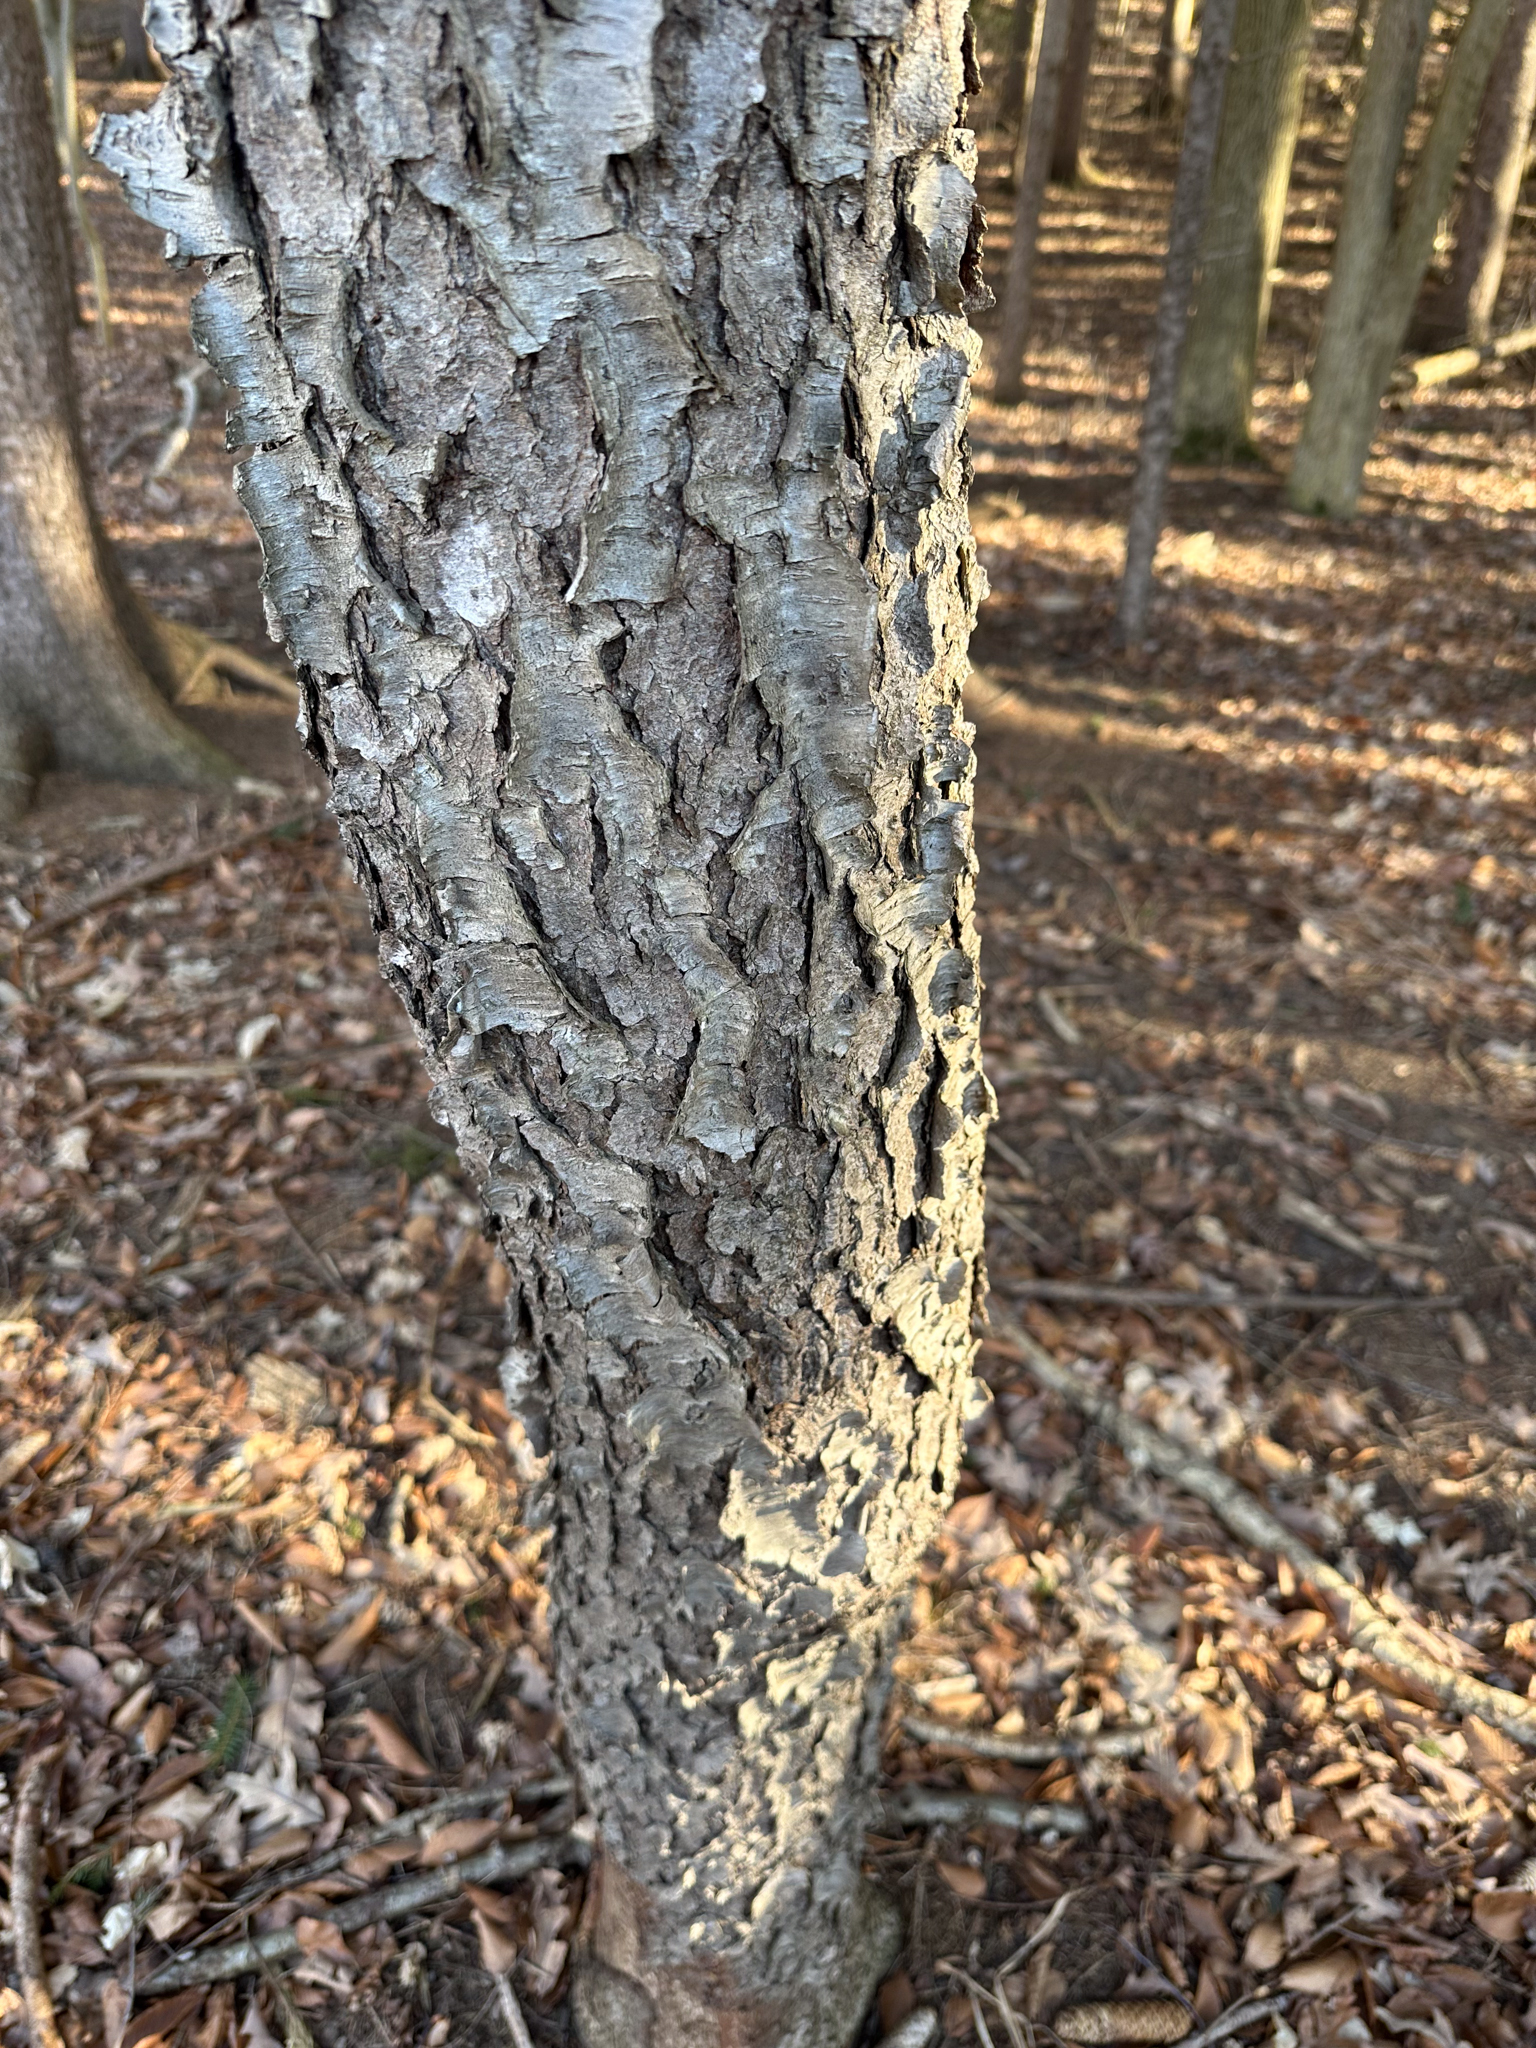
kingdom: Plantae
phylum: Tracheophyta
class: Magnoliopsida
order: Rosales
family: Rosaceae
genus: Prunus
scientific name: Prunus serotina
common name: Black cherry
